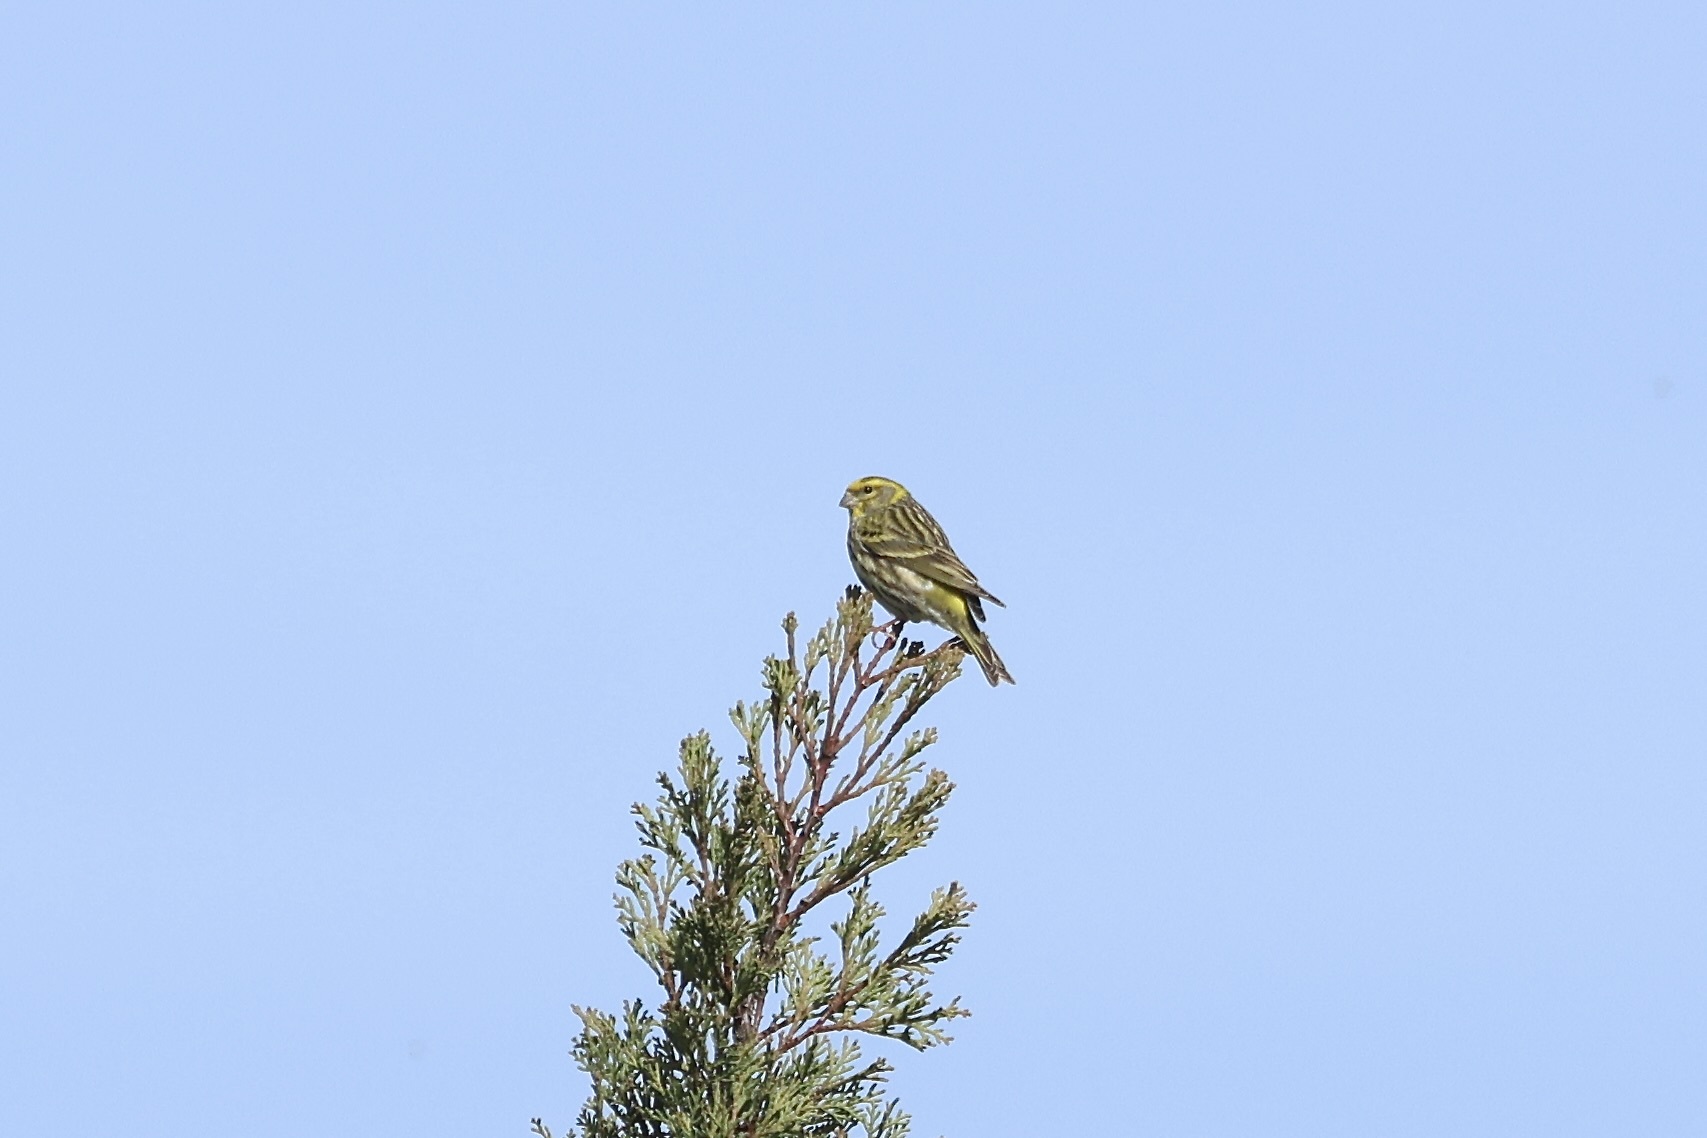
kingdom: Animalia
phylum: Chordata
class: Aves
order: Passeriformes
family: Fringillidae
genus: Serinus
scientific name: Serinus serinus
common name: European serin
